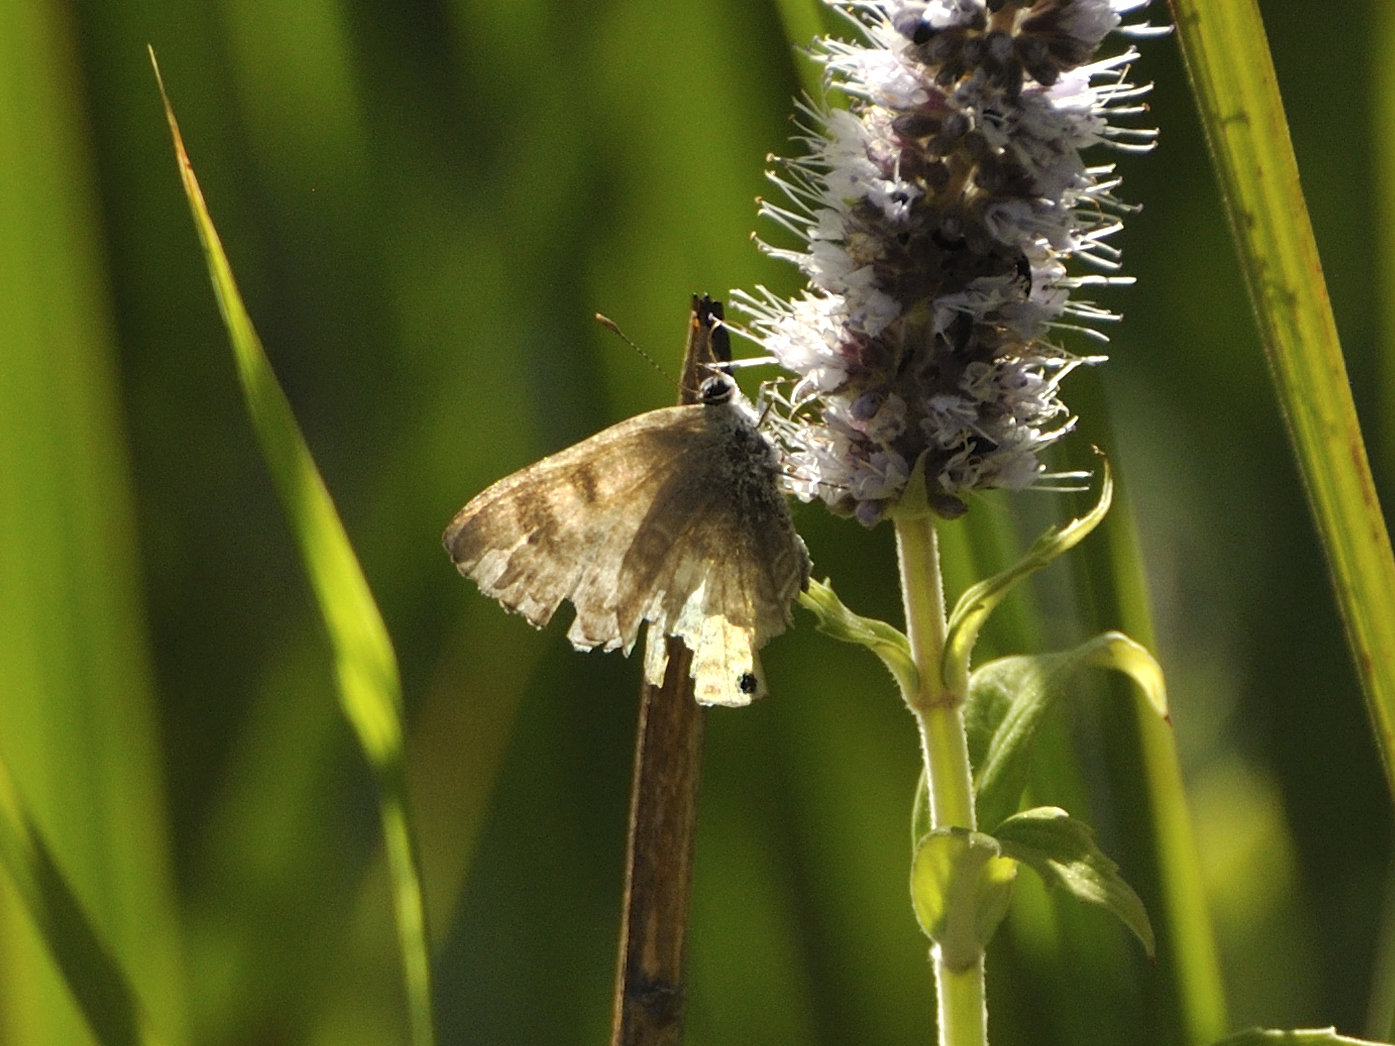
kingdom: Animalia
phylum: Arthropoda
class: Insecta
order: Lepidoptera
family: Lycaenidae
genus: Anthene
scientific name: Anthene definita
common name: Common ciliate blue
